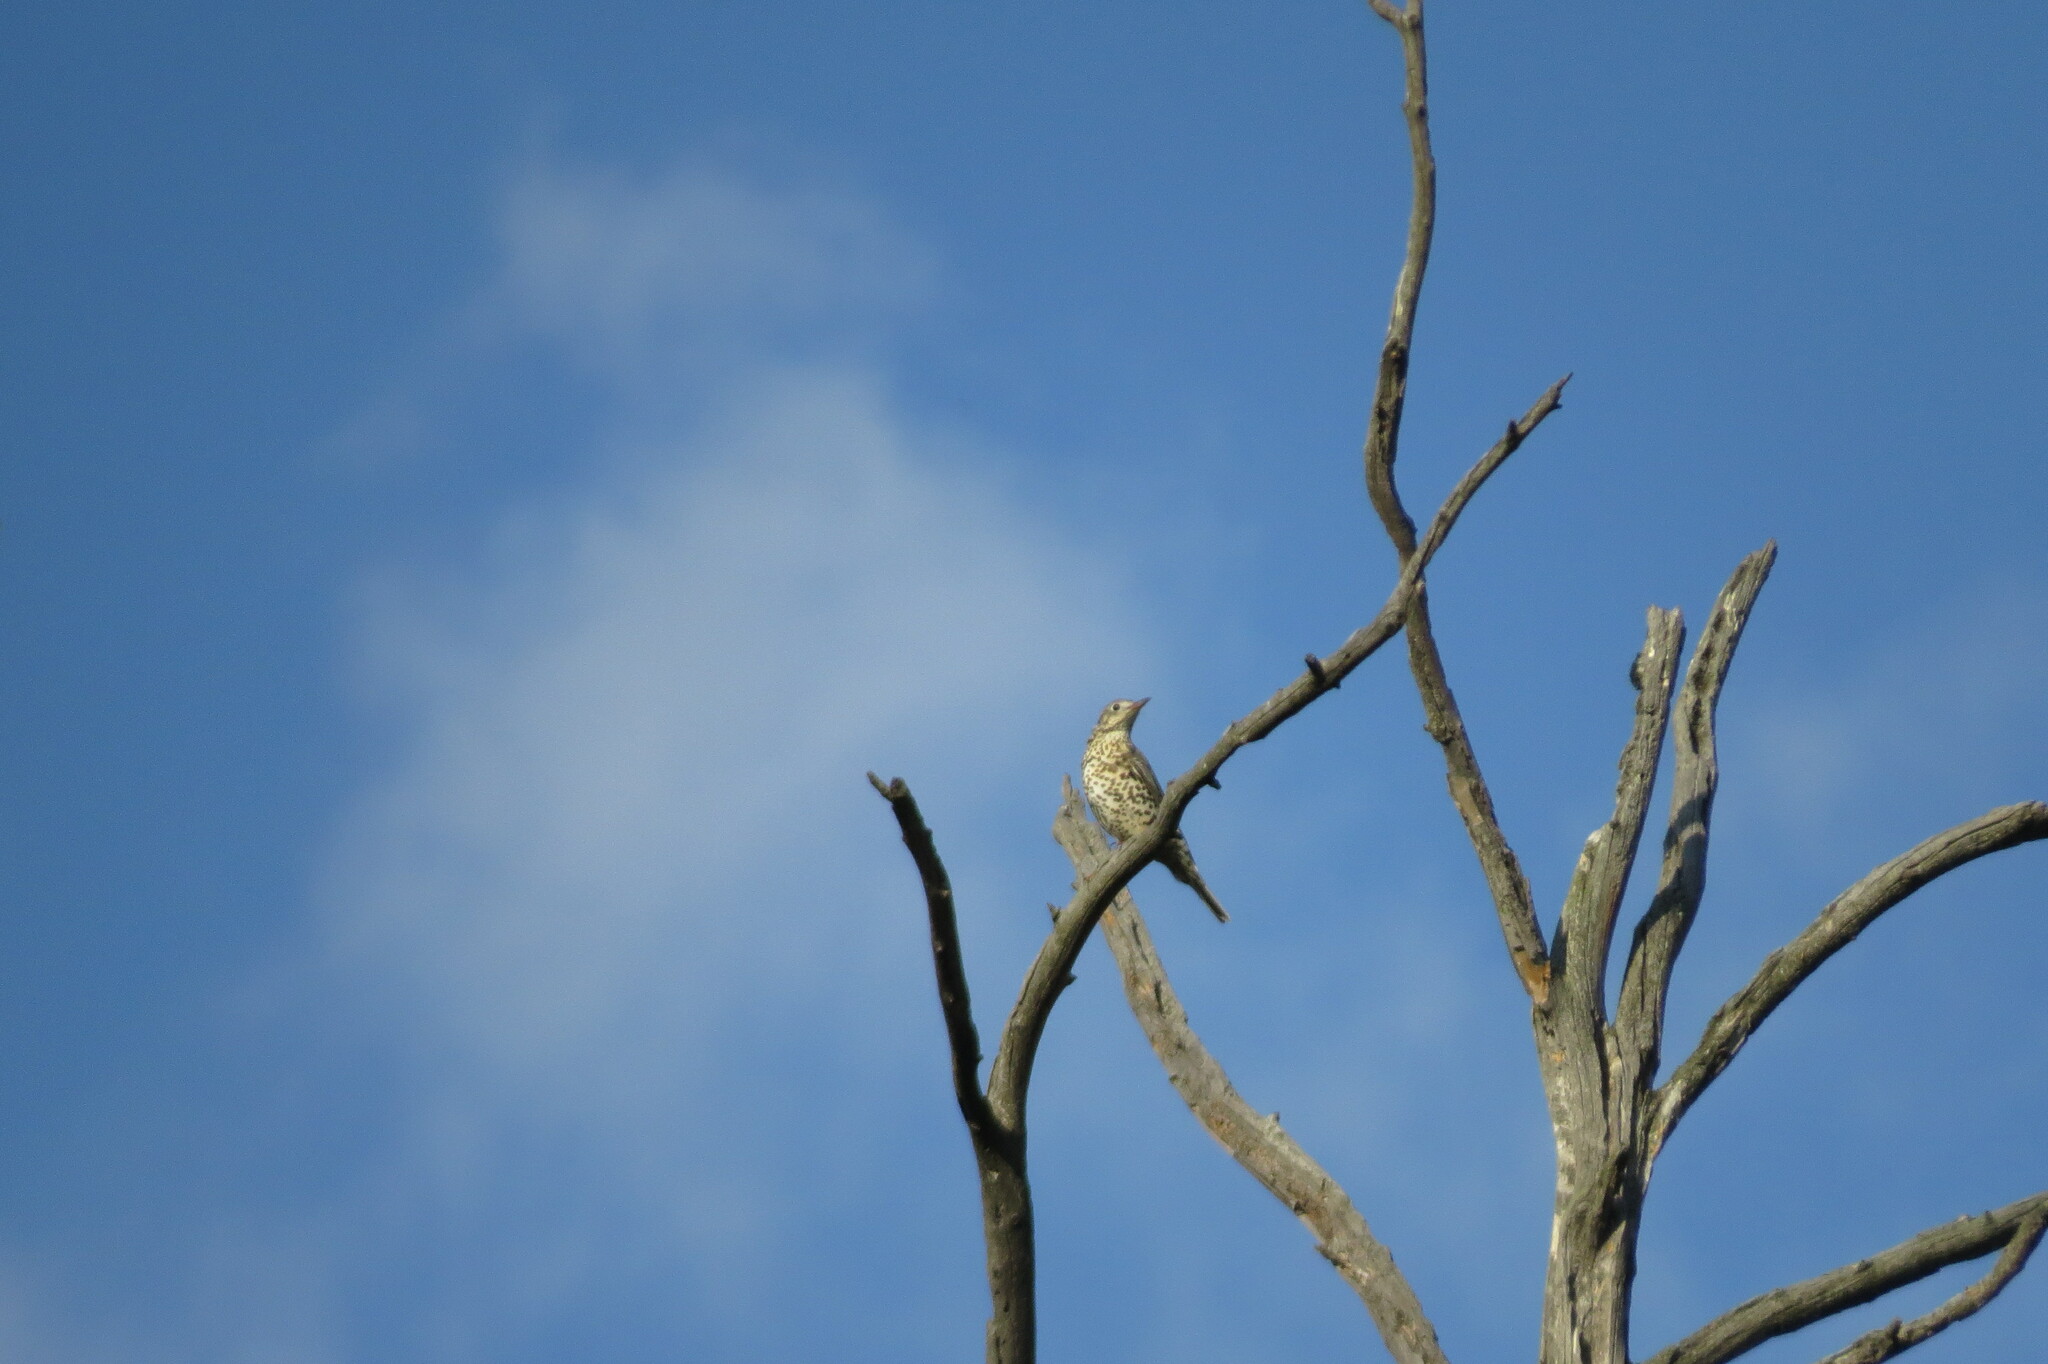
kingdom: Animalia
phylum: Chordata
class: Aves
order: Passeriformes
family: Turdidae
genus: Turdus
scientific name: Turdus viscivorus
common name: Mistle thrush
